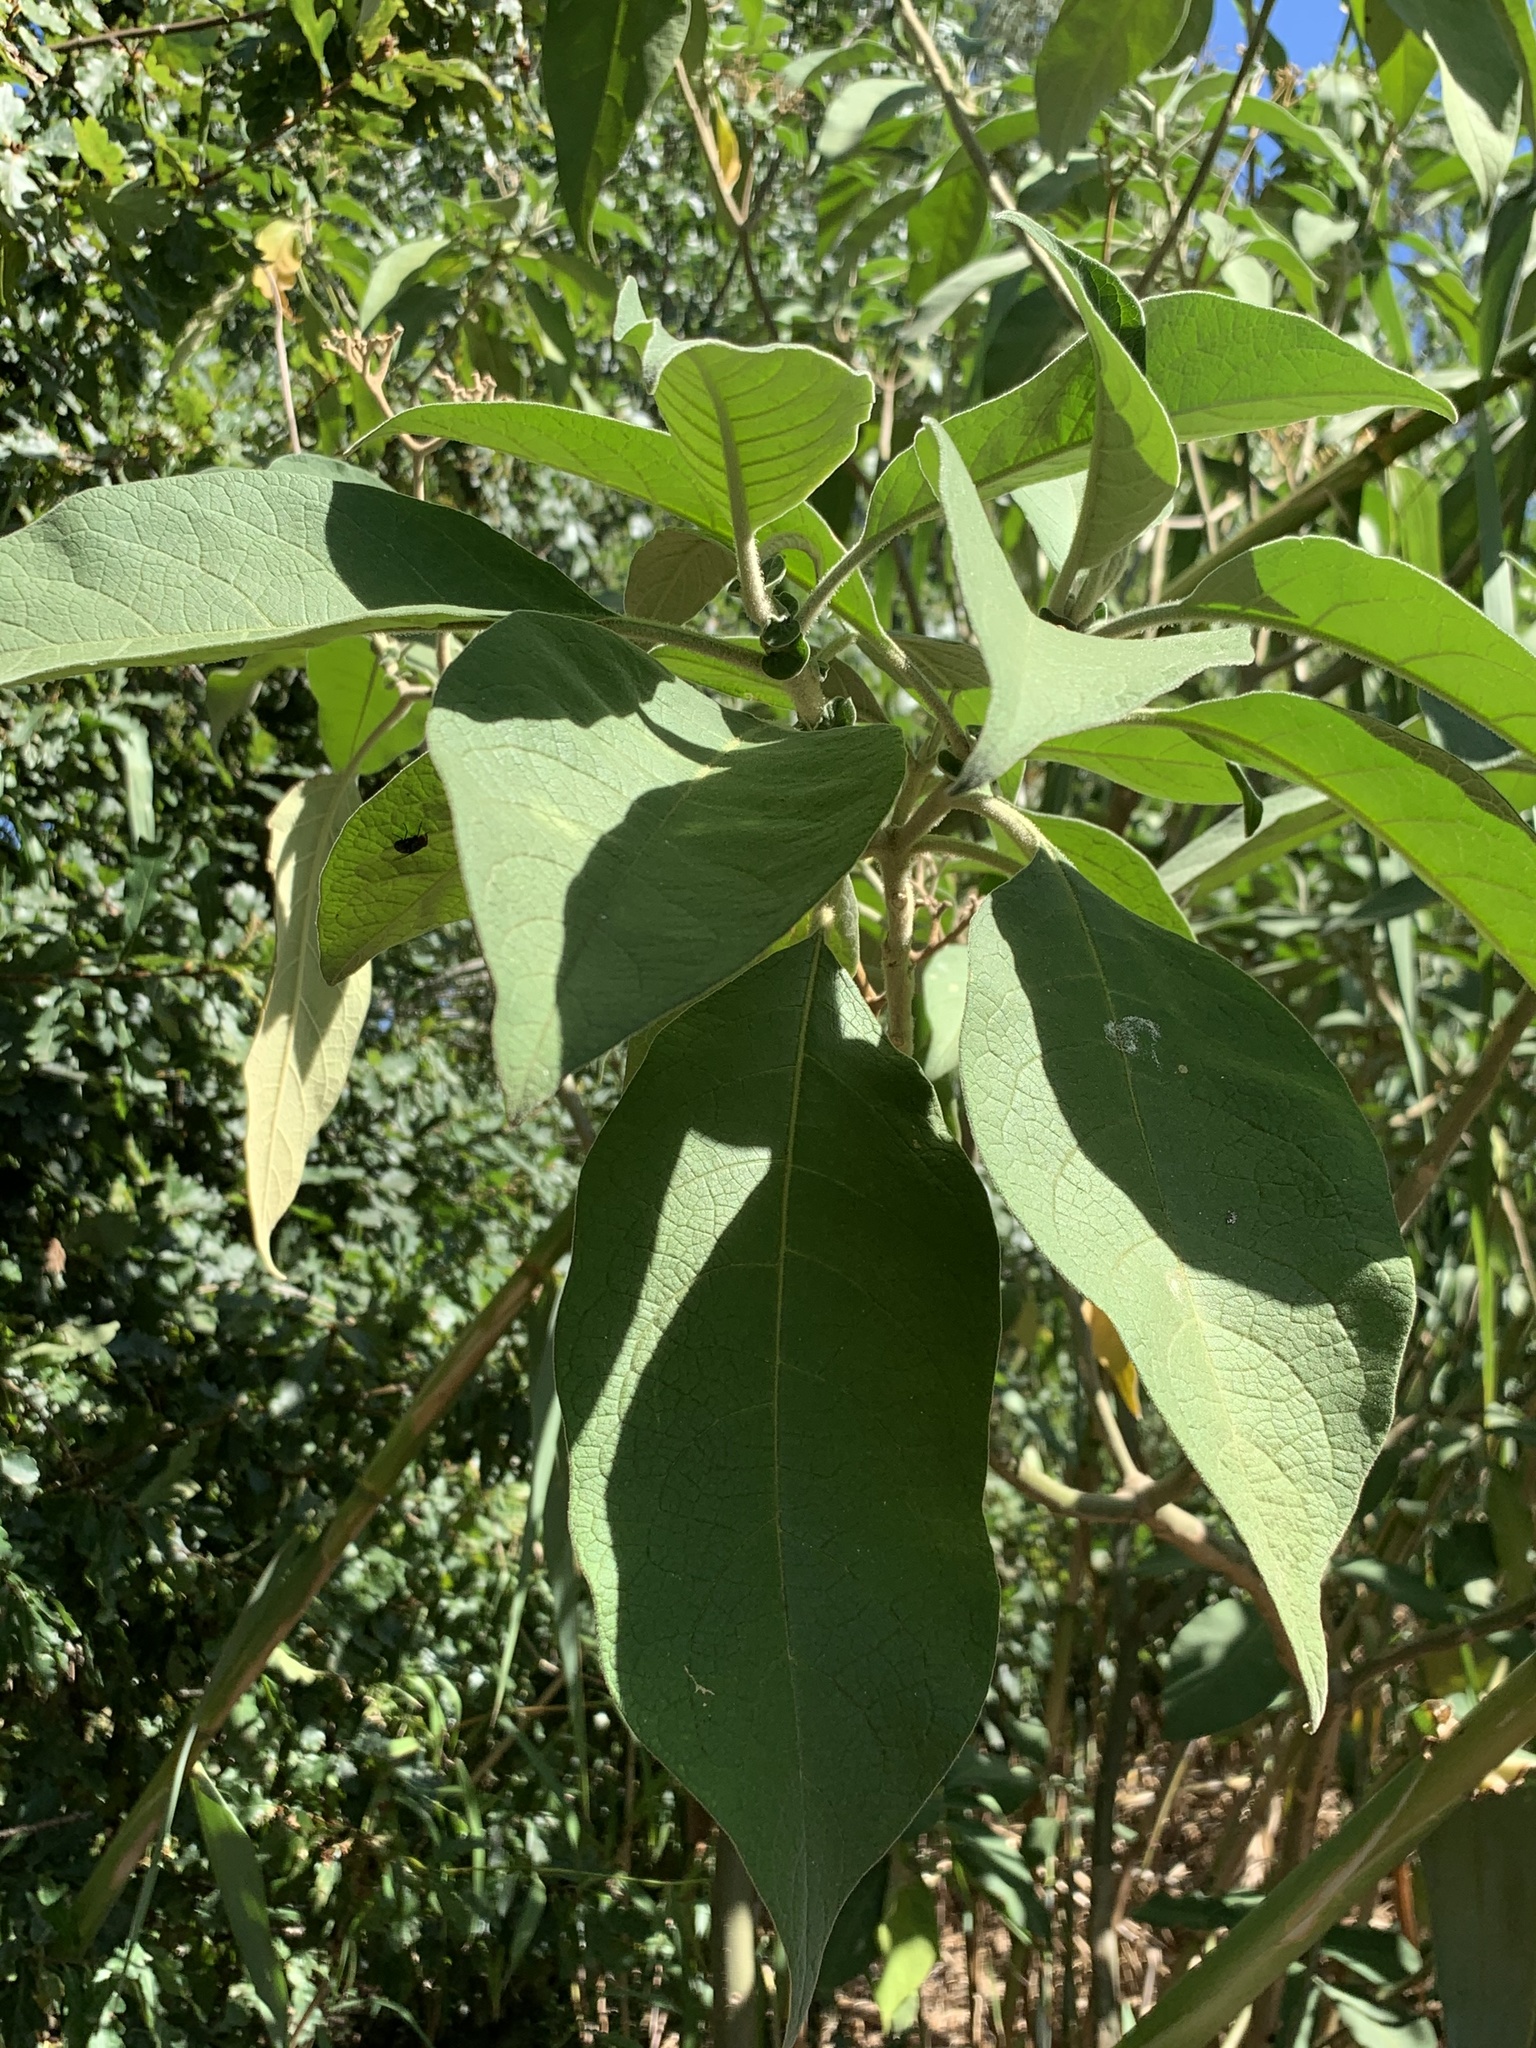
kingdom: Plantae
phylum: Tracheophyta
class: Magnoliopsida
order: Solanales
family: Solanaceae
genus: Solanum
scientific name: Solanum mauritianum
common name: Earleaf nightshade
